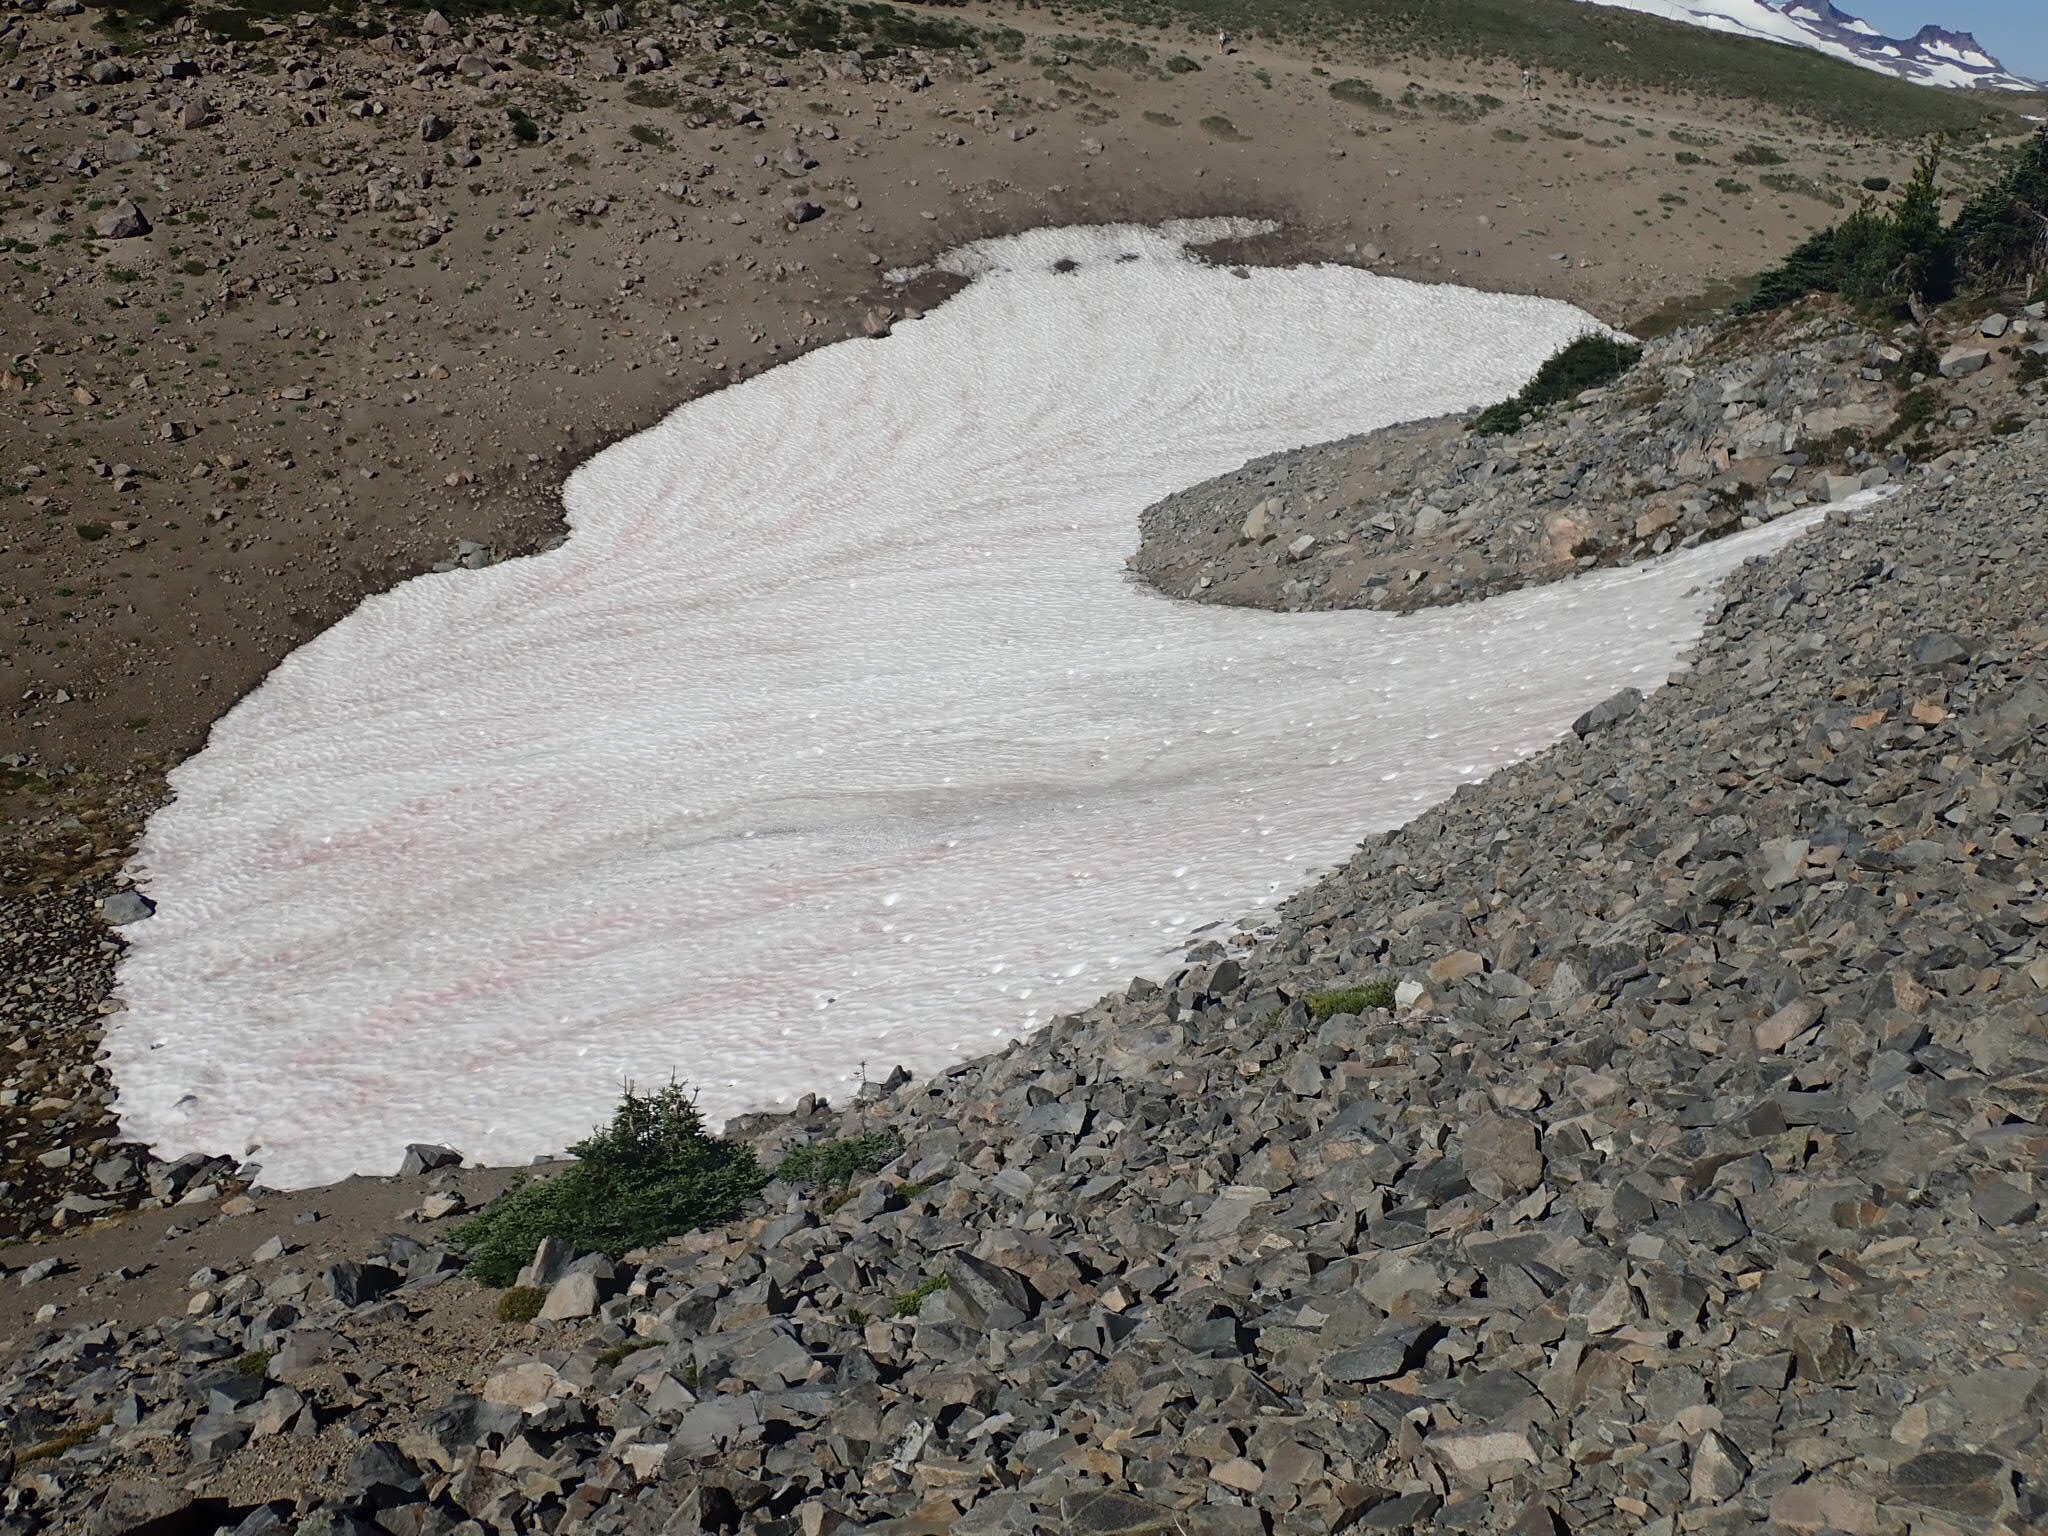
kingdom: Plantae
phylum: Chlorophyta
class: Chlorophyceae
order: Volvocales
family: Chlamydomonadaceae
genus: Chlamydomonas
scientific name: Chlamydomonas nivalis
